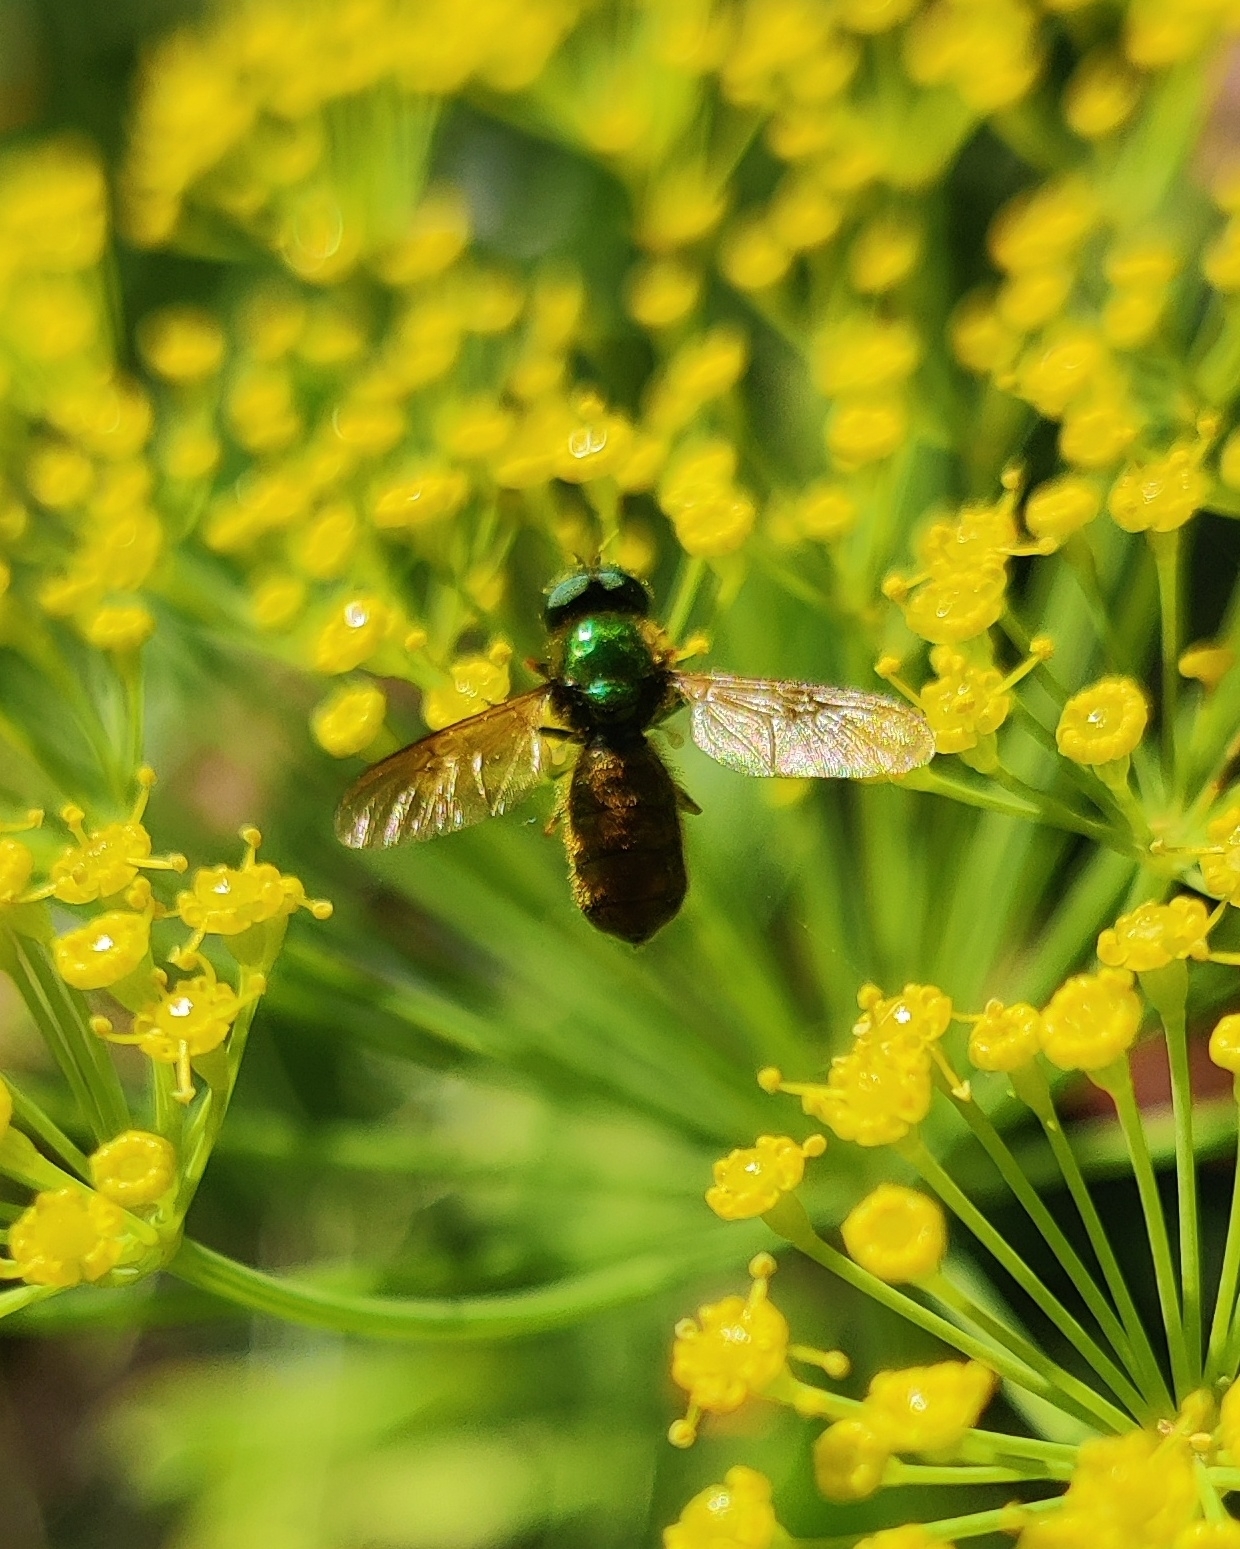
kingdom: Animalia
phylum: Arthropoda
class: Insecta
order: Diptera
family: Stratiomyidae
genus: Chloromyia
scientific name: Chloromyia formosa
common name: Soldier fly
